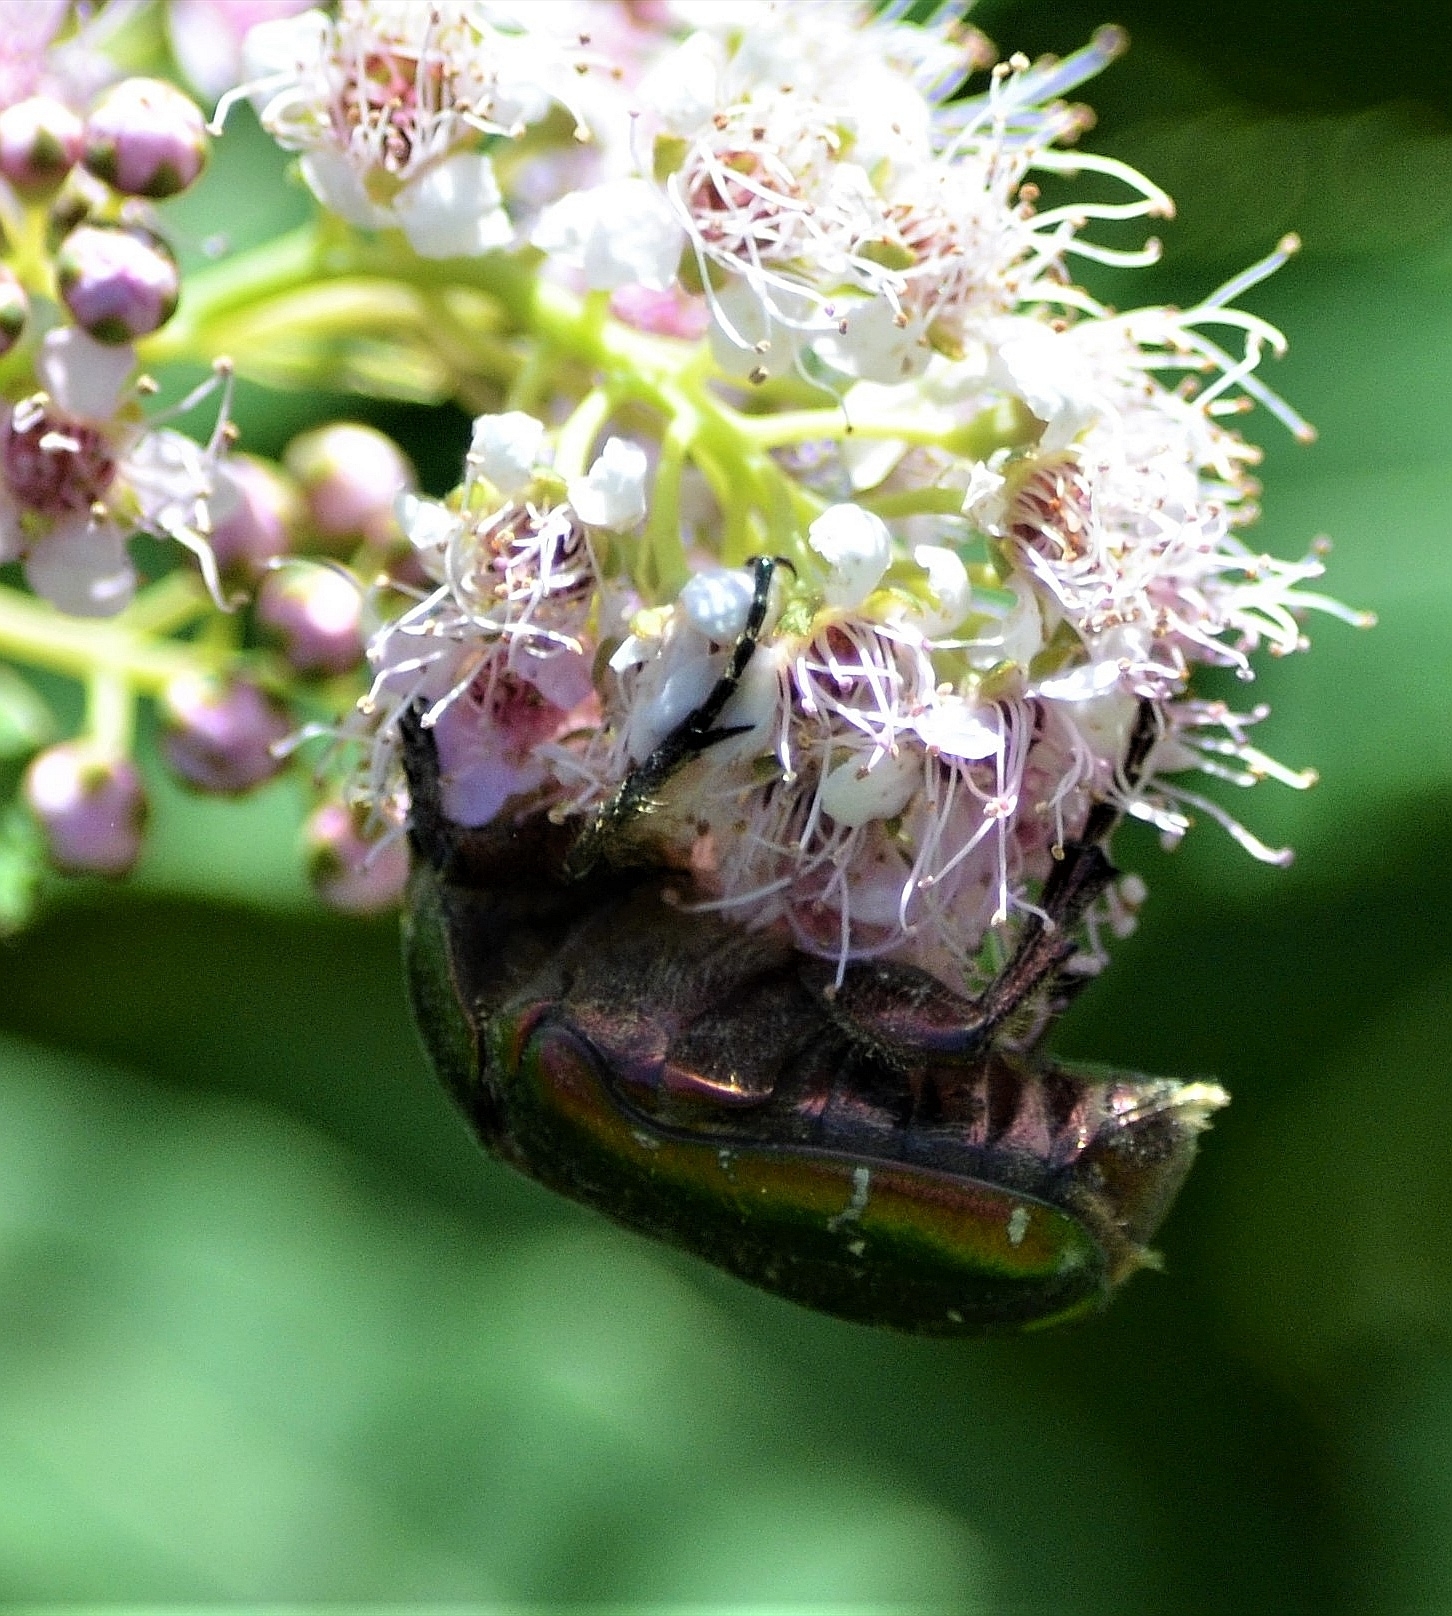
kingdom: Animalia
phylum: Arthropoda
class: Insecta
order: Coleoptera
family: Scarabaeidae
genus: Cetonia
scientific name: Cetonia aurata
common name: Rose chafer
